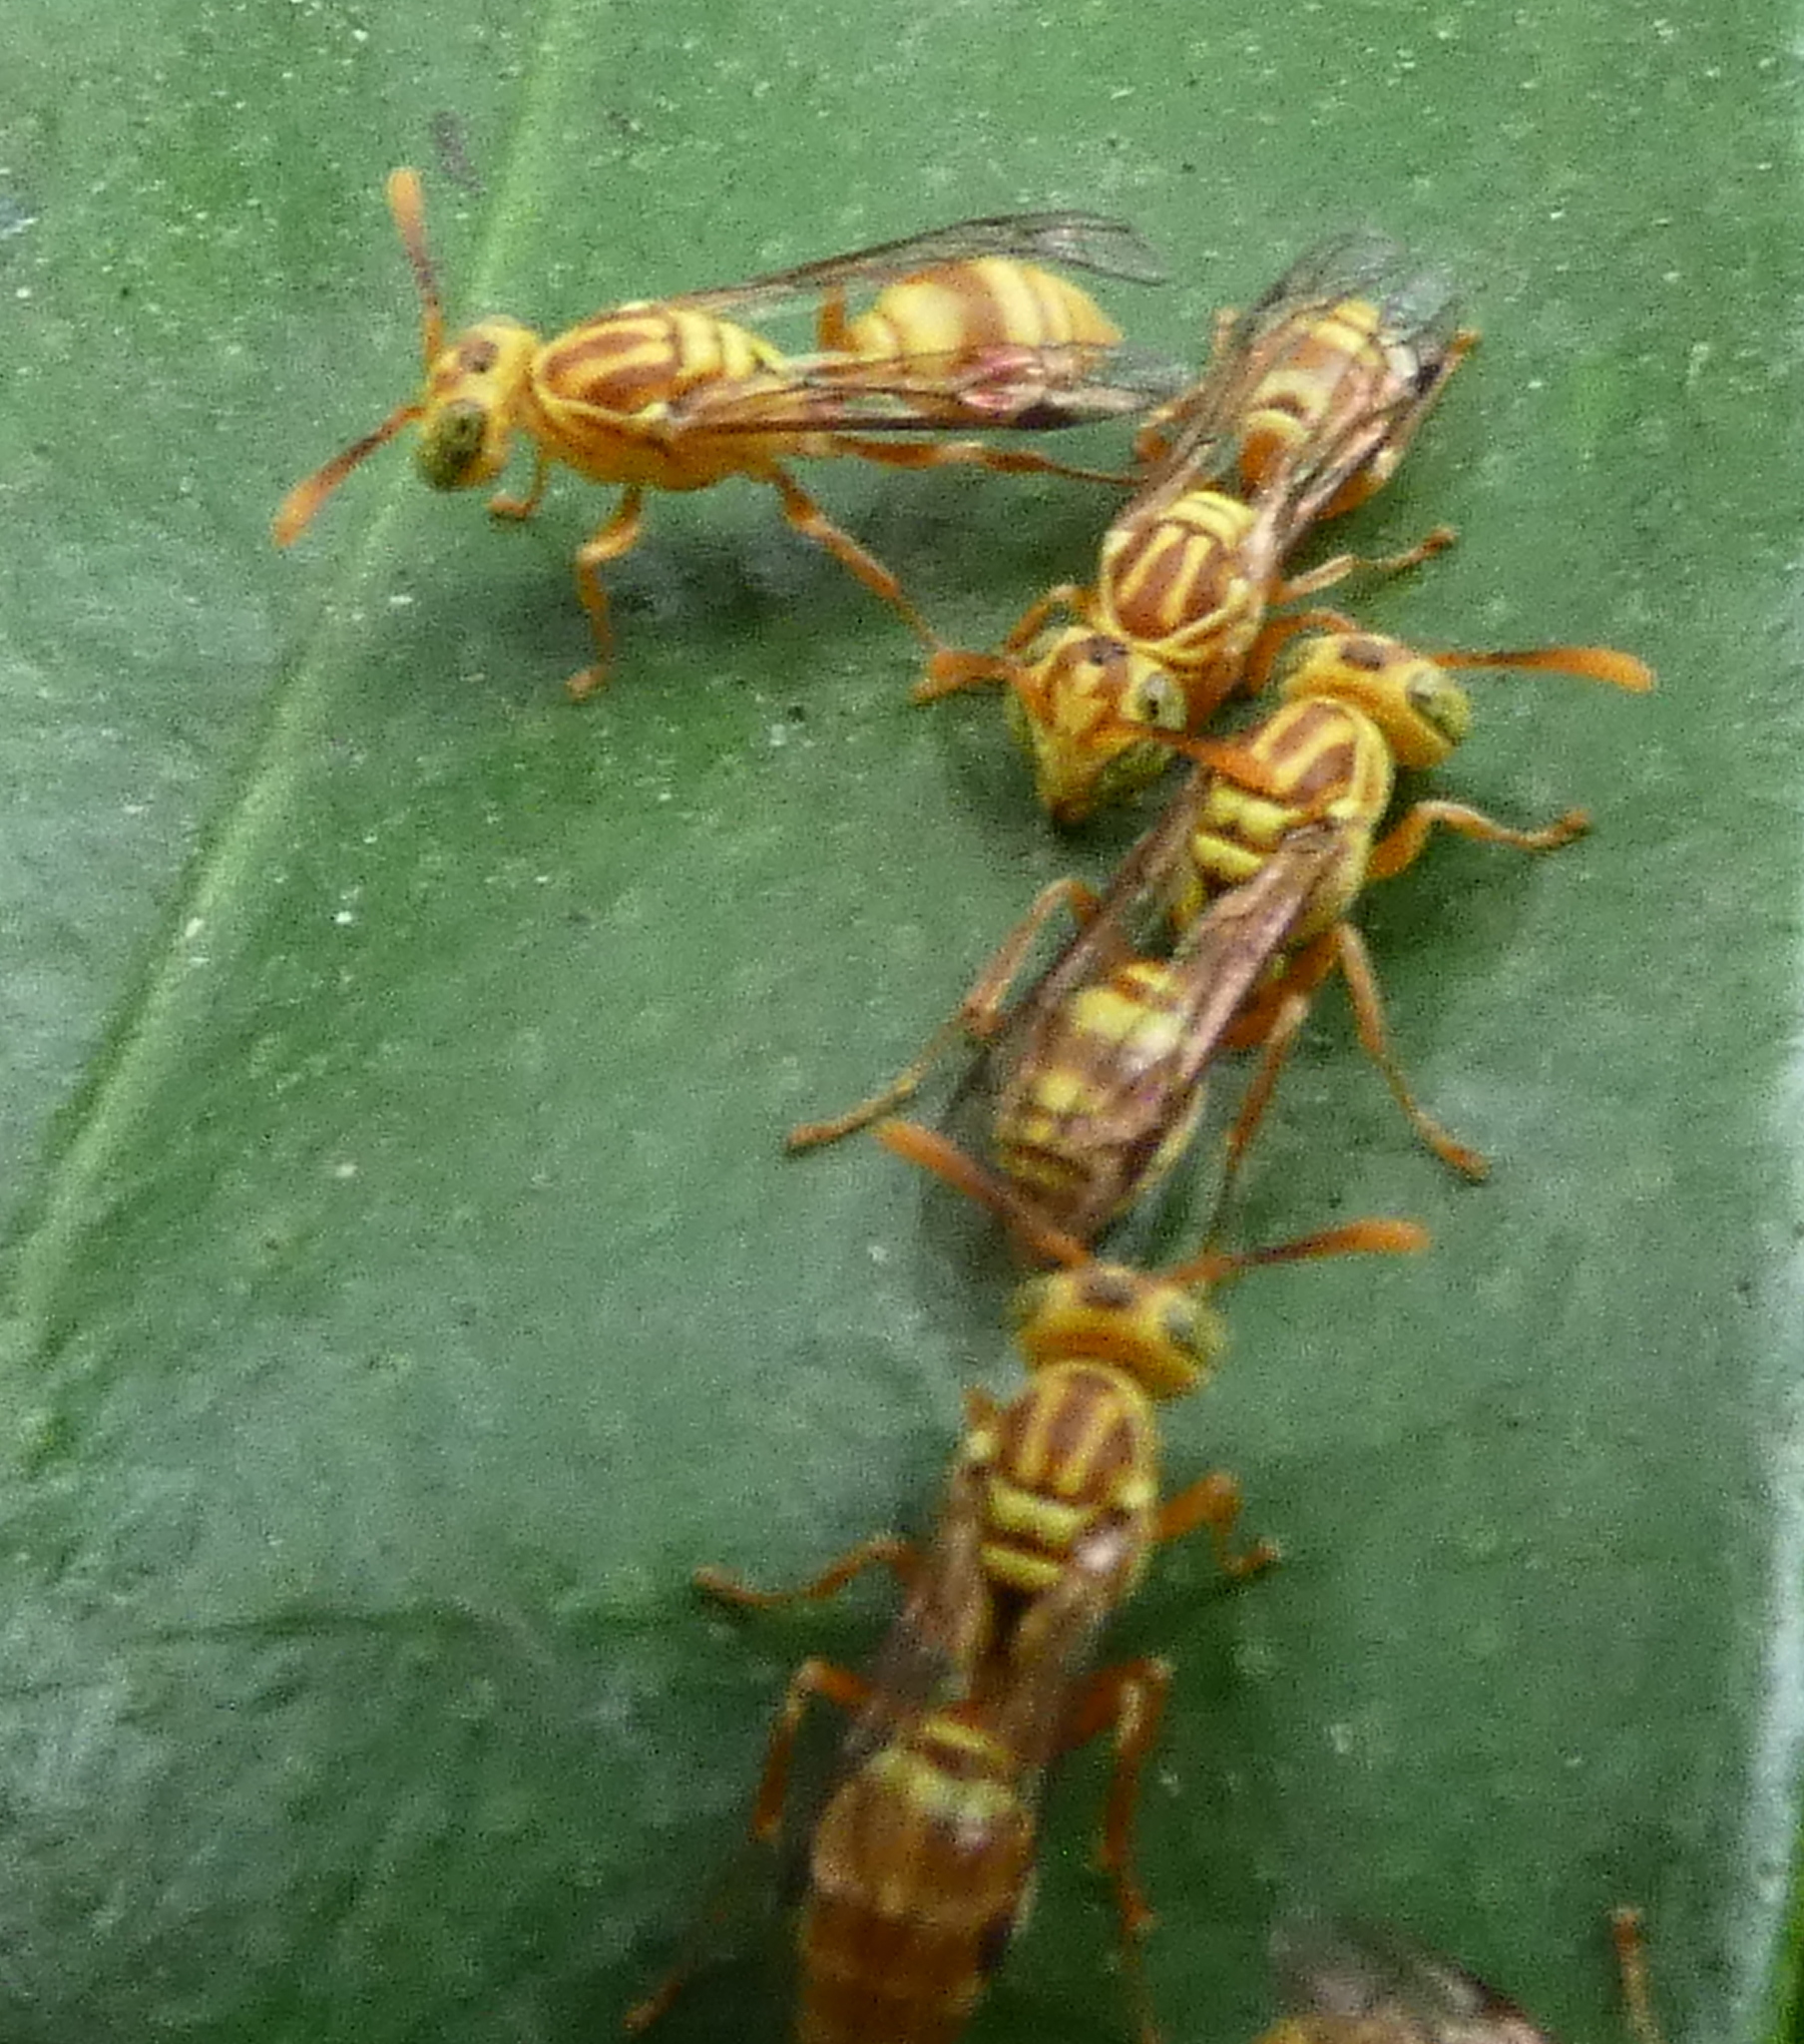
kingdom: Animalia
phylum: Arthropoda
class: Insecta
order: Hymenoptera
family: Vespidae
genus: Protopolybia
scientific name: Protopolybia potiguara
